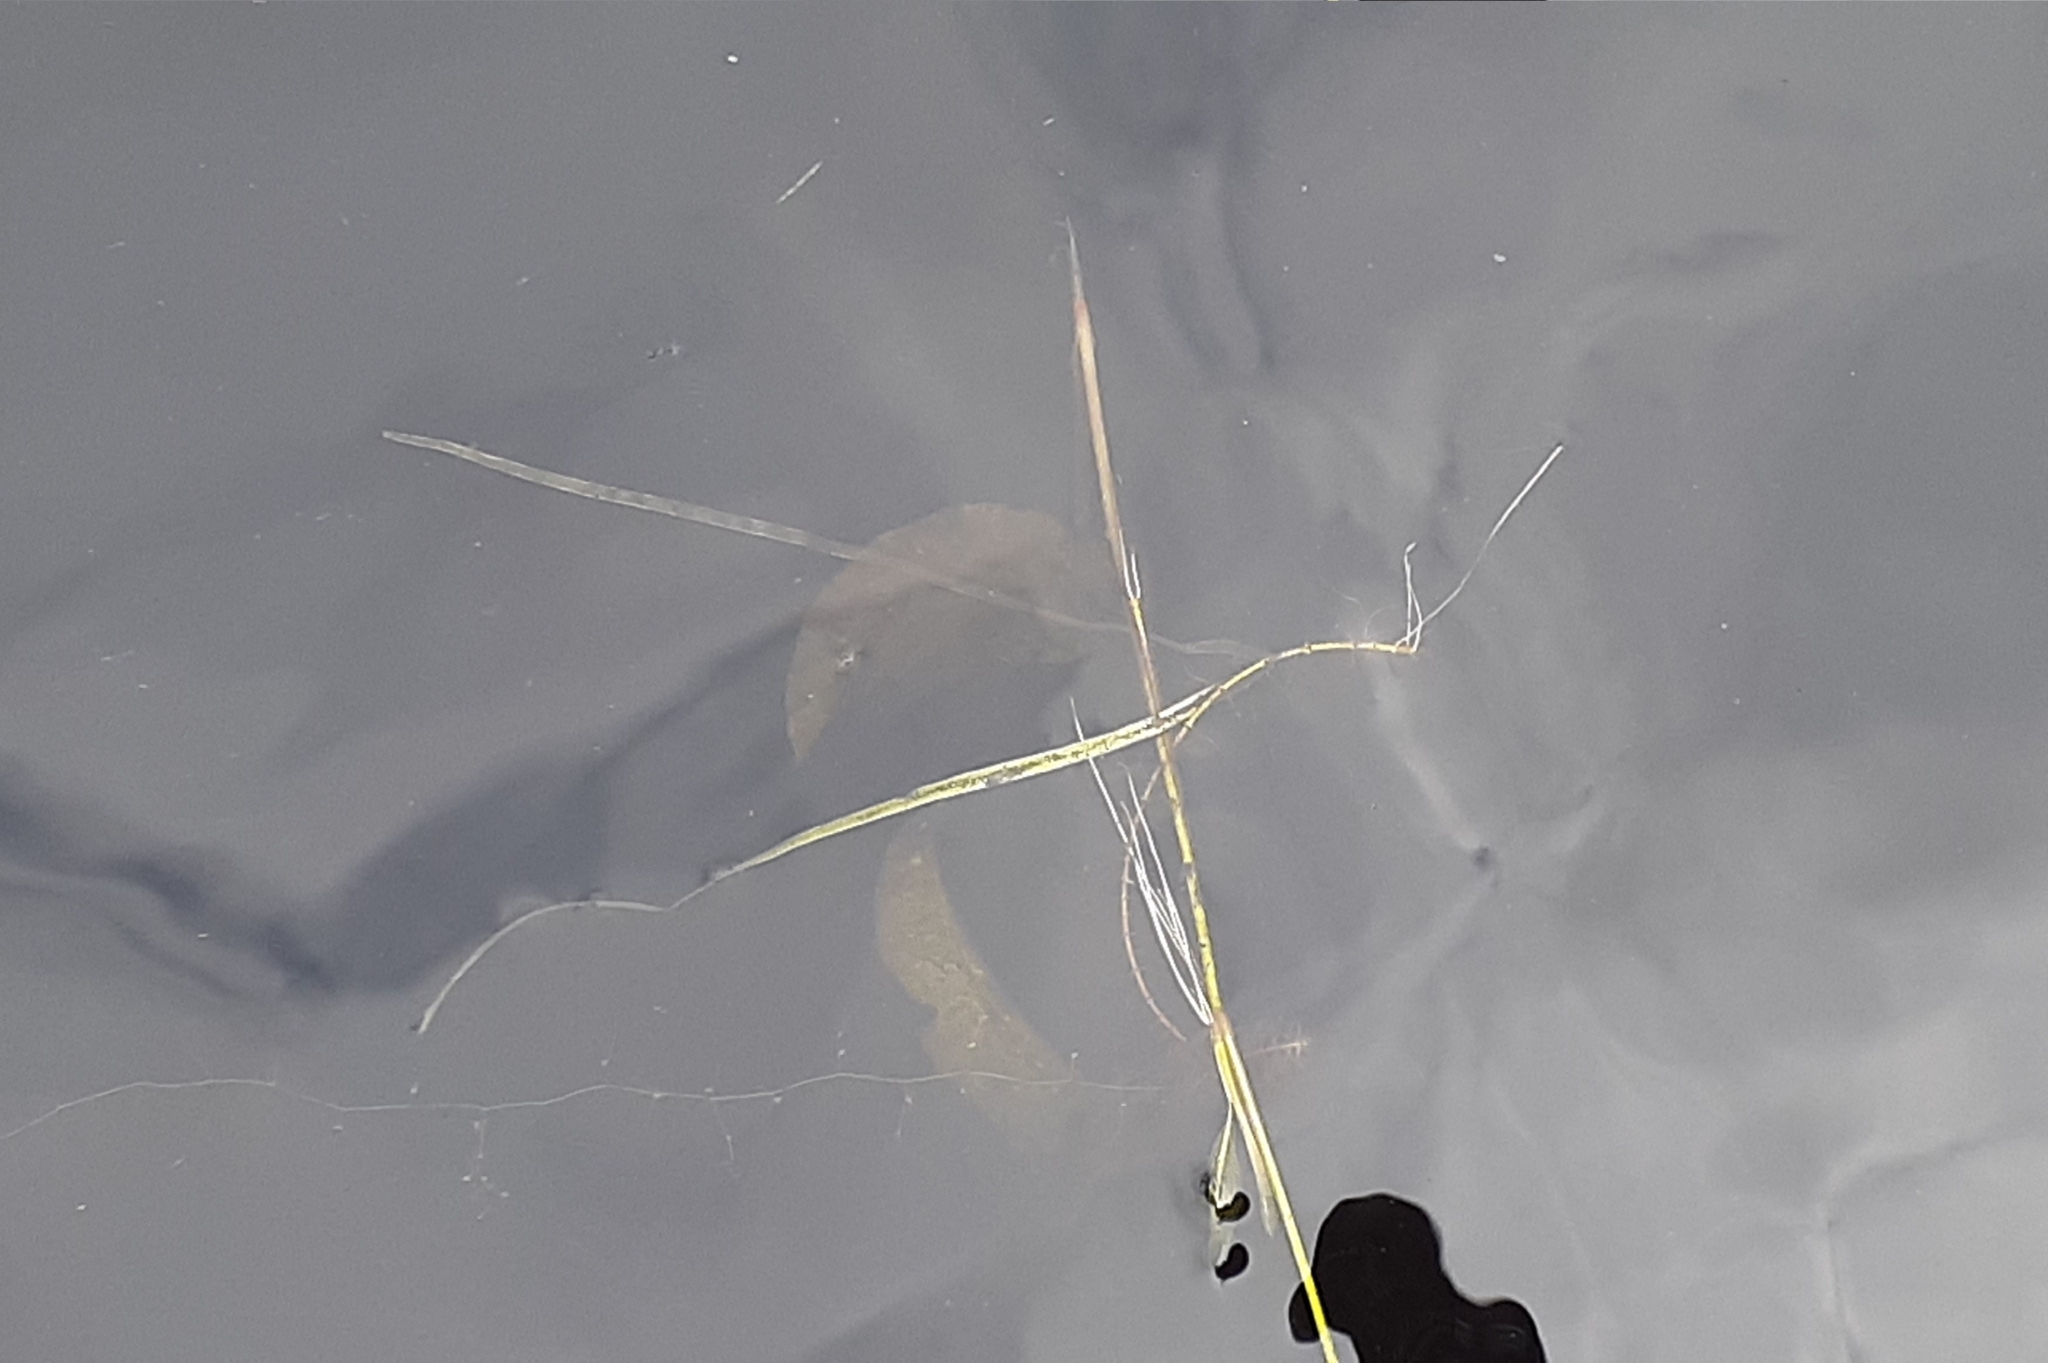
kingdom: Plantae
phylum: Tracheophyta
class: Liliopsida
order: Alismatales
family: Potamogetonaceae
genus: Potamogeton
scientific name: Potamogeton amplifolius
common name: Broad-leaved pondweed
